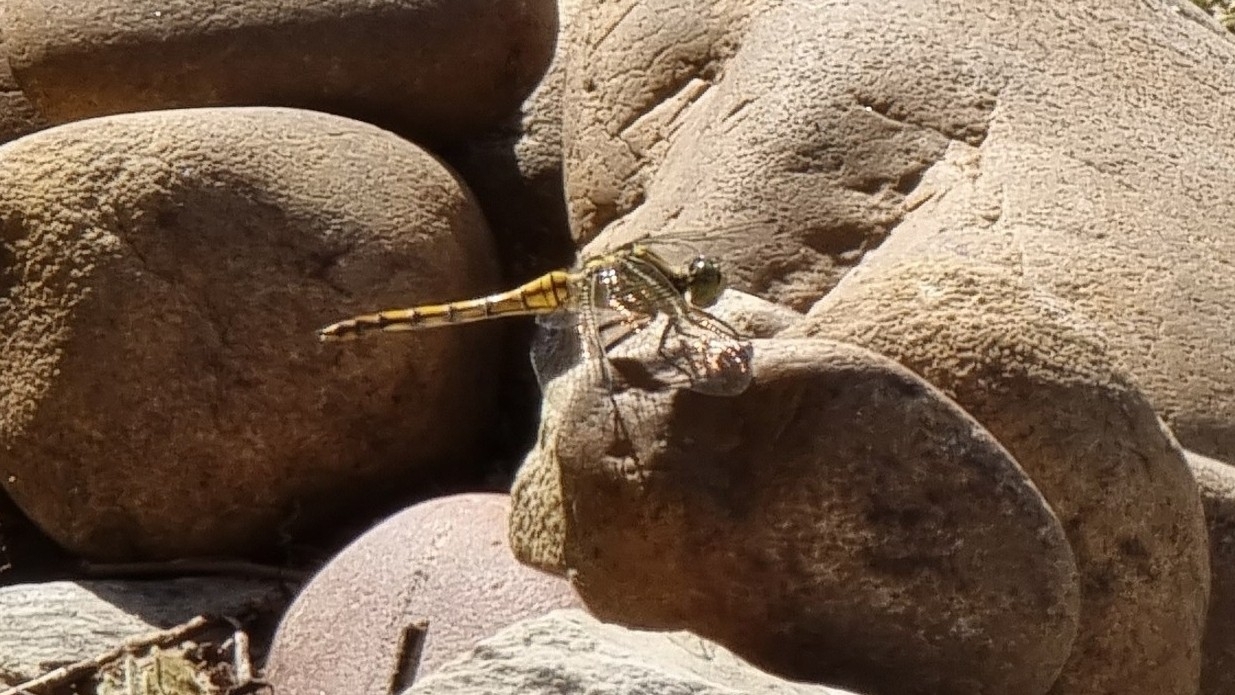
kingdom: Animalia
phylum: Arthropoda
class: Insecta
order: Odonata
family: Libellulidae
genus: Orthetrum
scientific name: Orthetrum cancellatum
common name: Black-tailed skimmer
